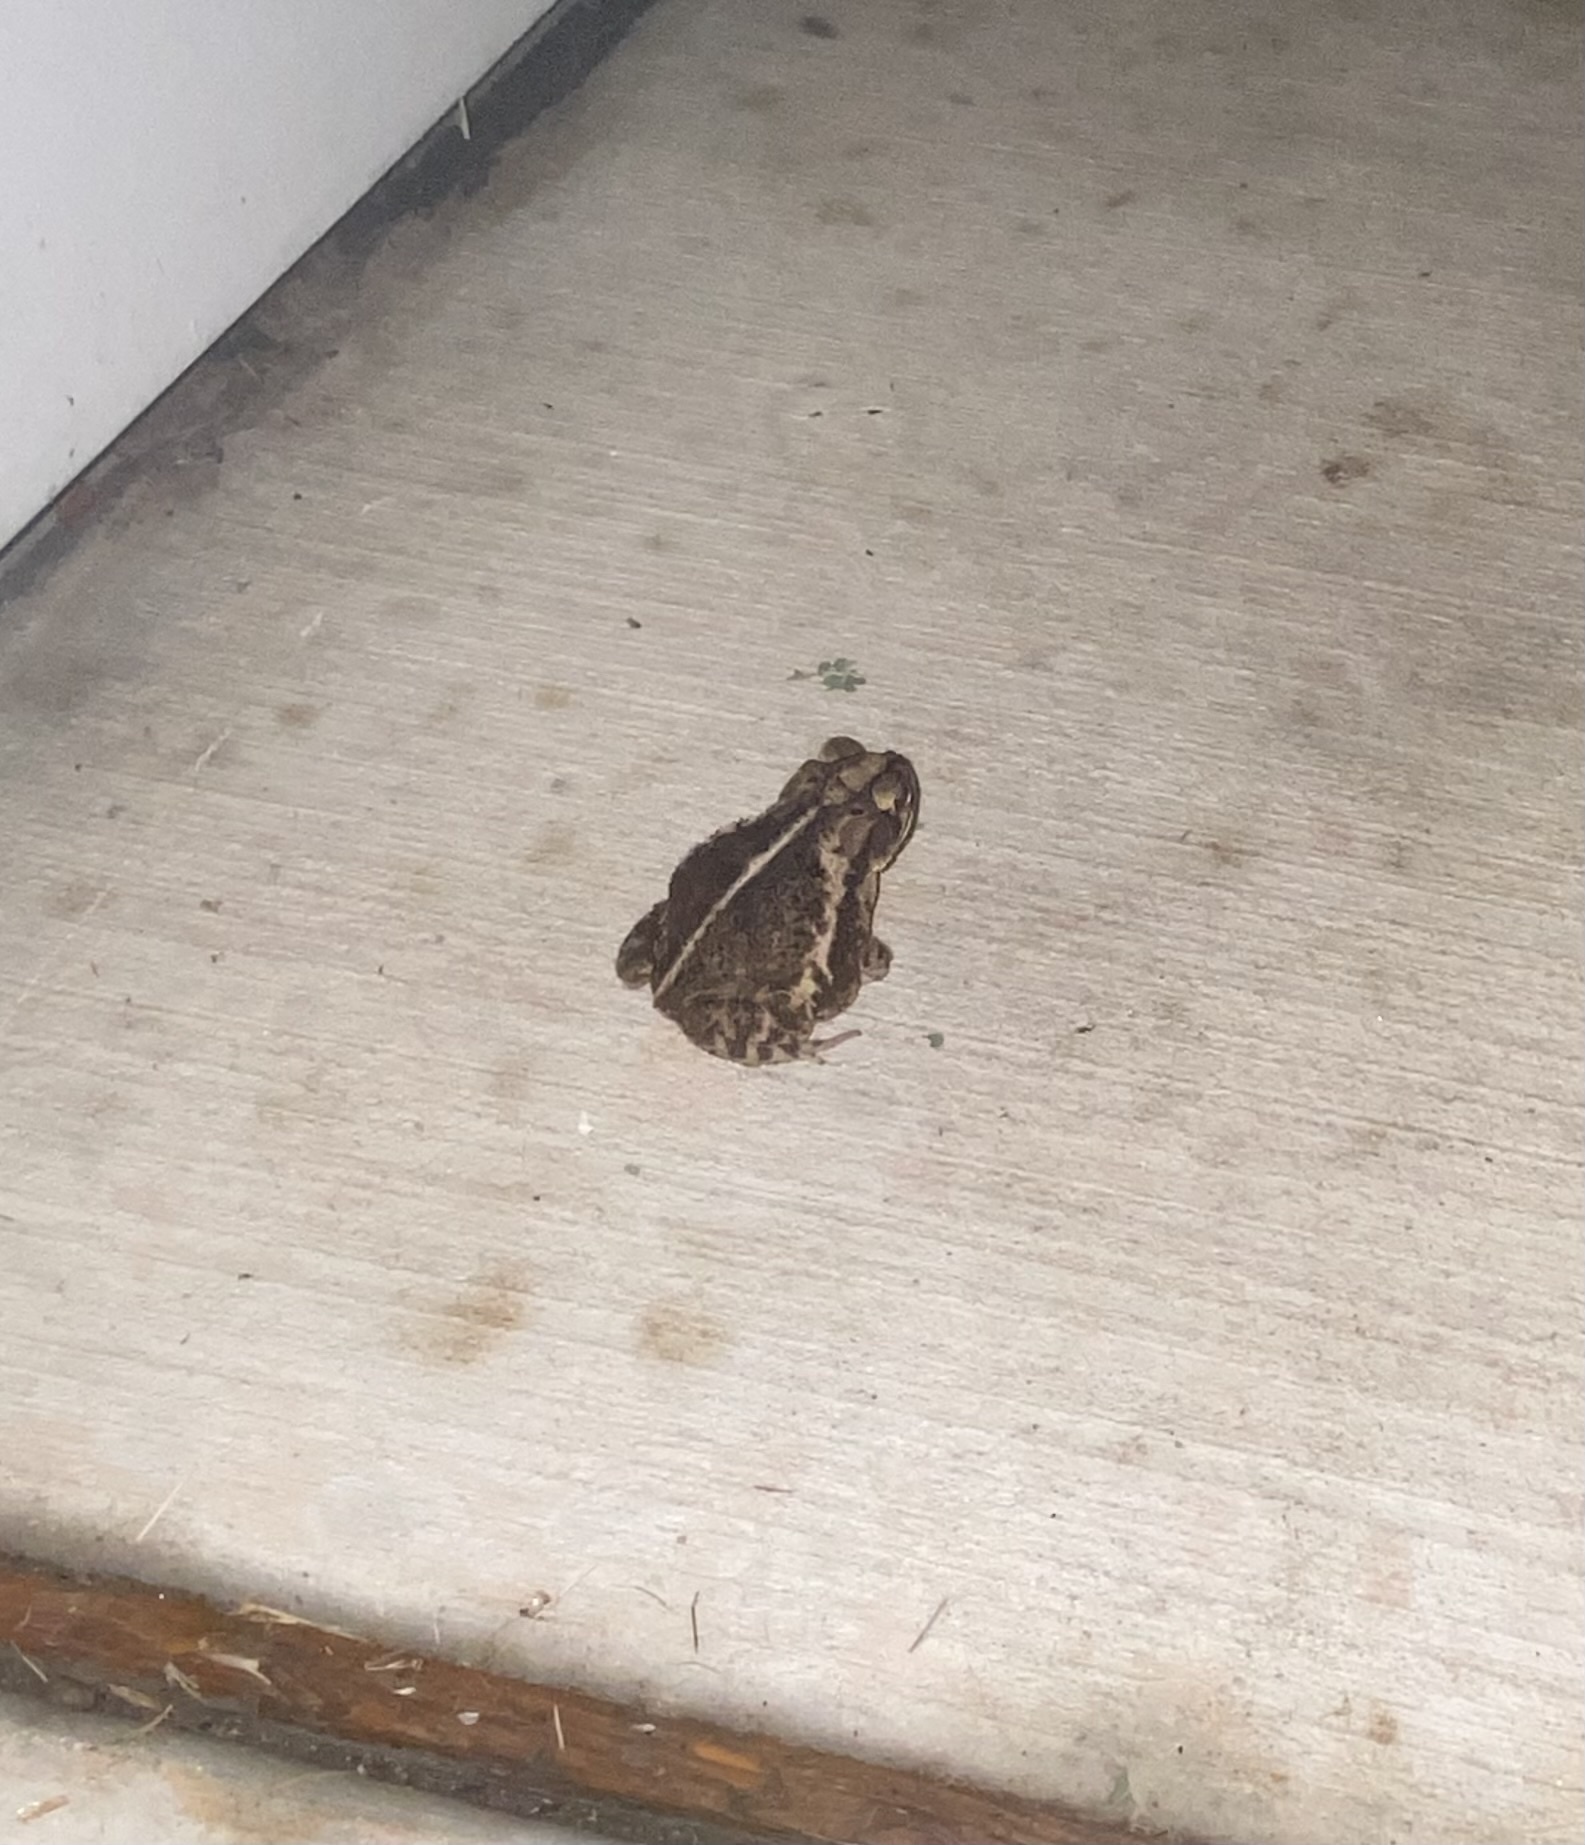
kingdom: Animalia
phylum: Chordata
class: Amphibia
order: Anura
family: Bufonidae
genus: Incilius
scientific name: Incilius nebulifer
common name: Gulf coast toad
